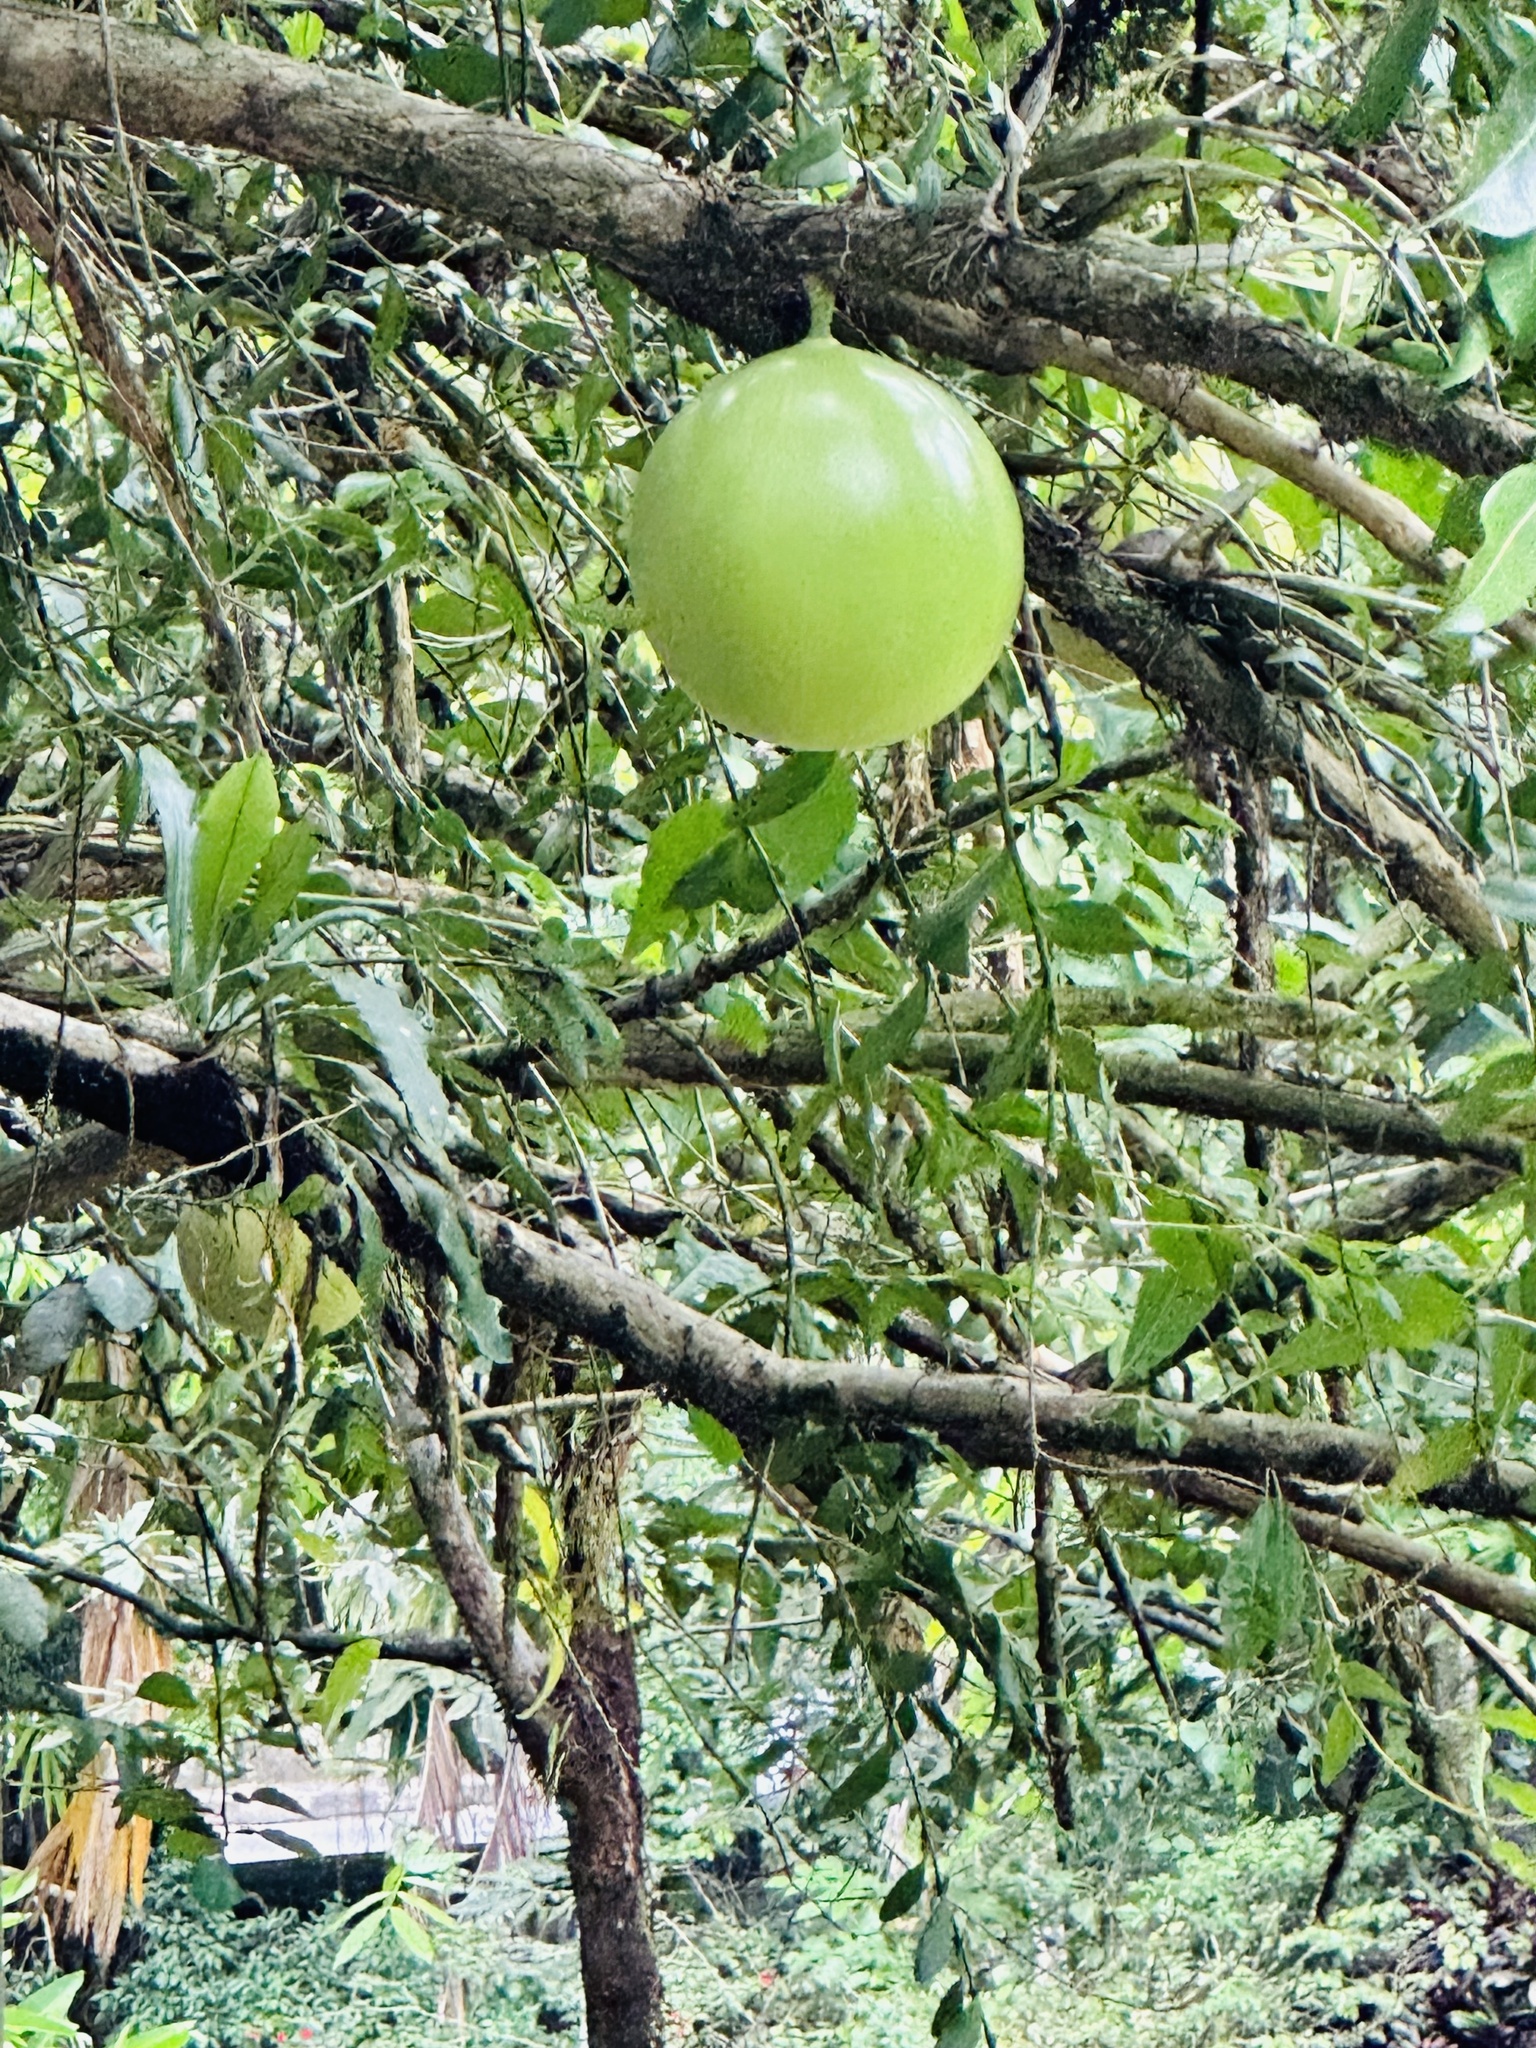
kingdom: Plantae
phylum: Tracheophyta
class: Magnoliopsida
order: Lamiales
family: Bignoniaceae
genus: Crescentia
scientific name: Crescentia cujete
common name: Calabash
